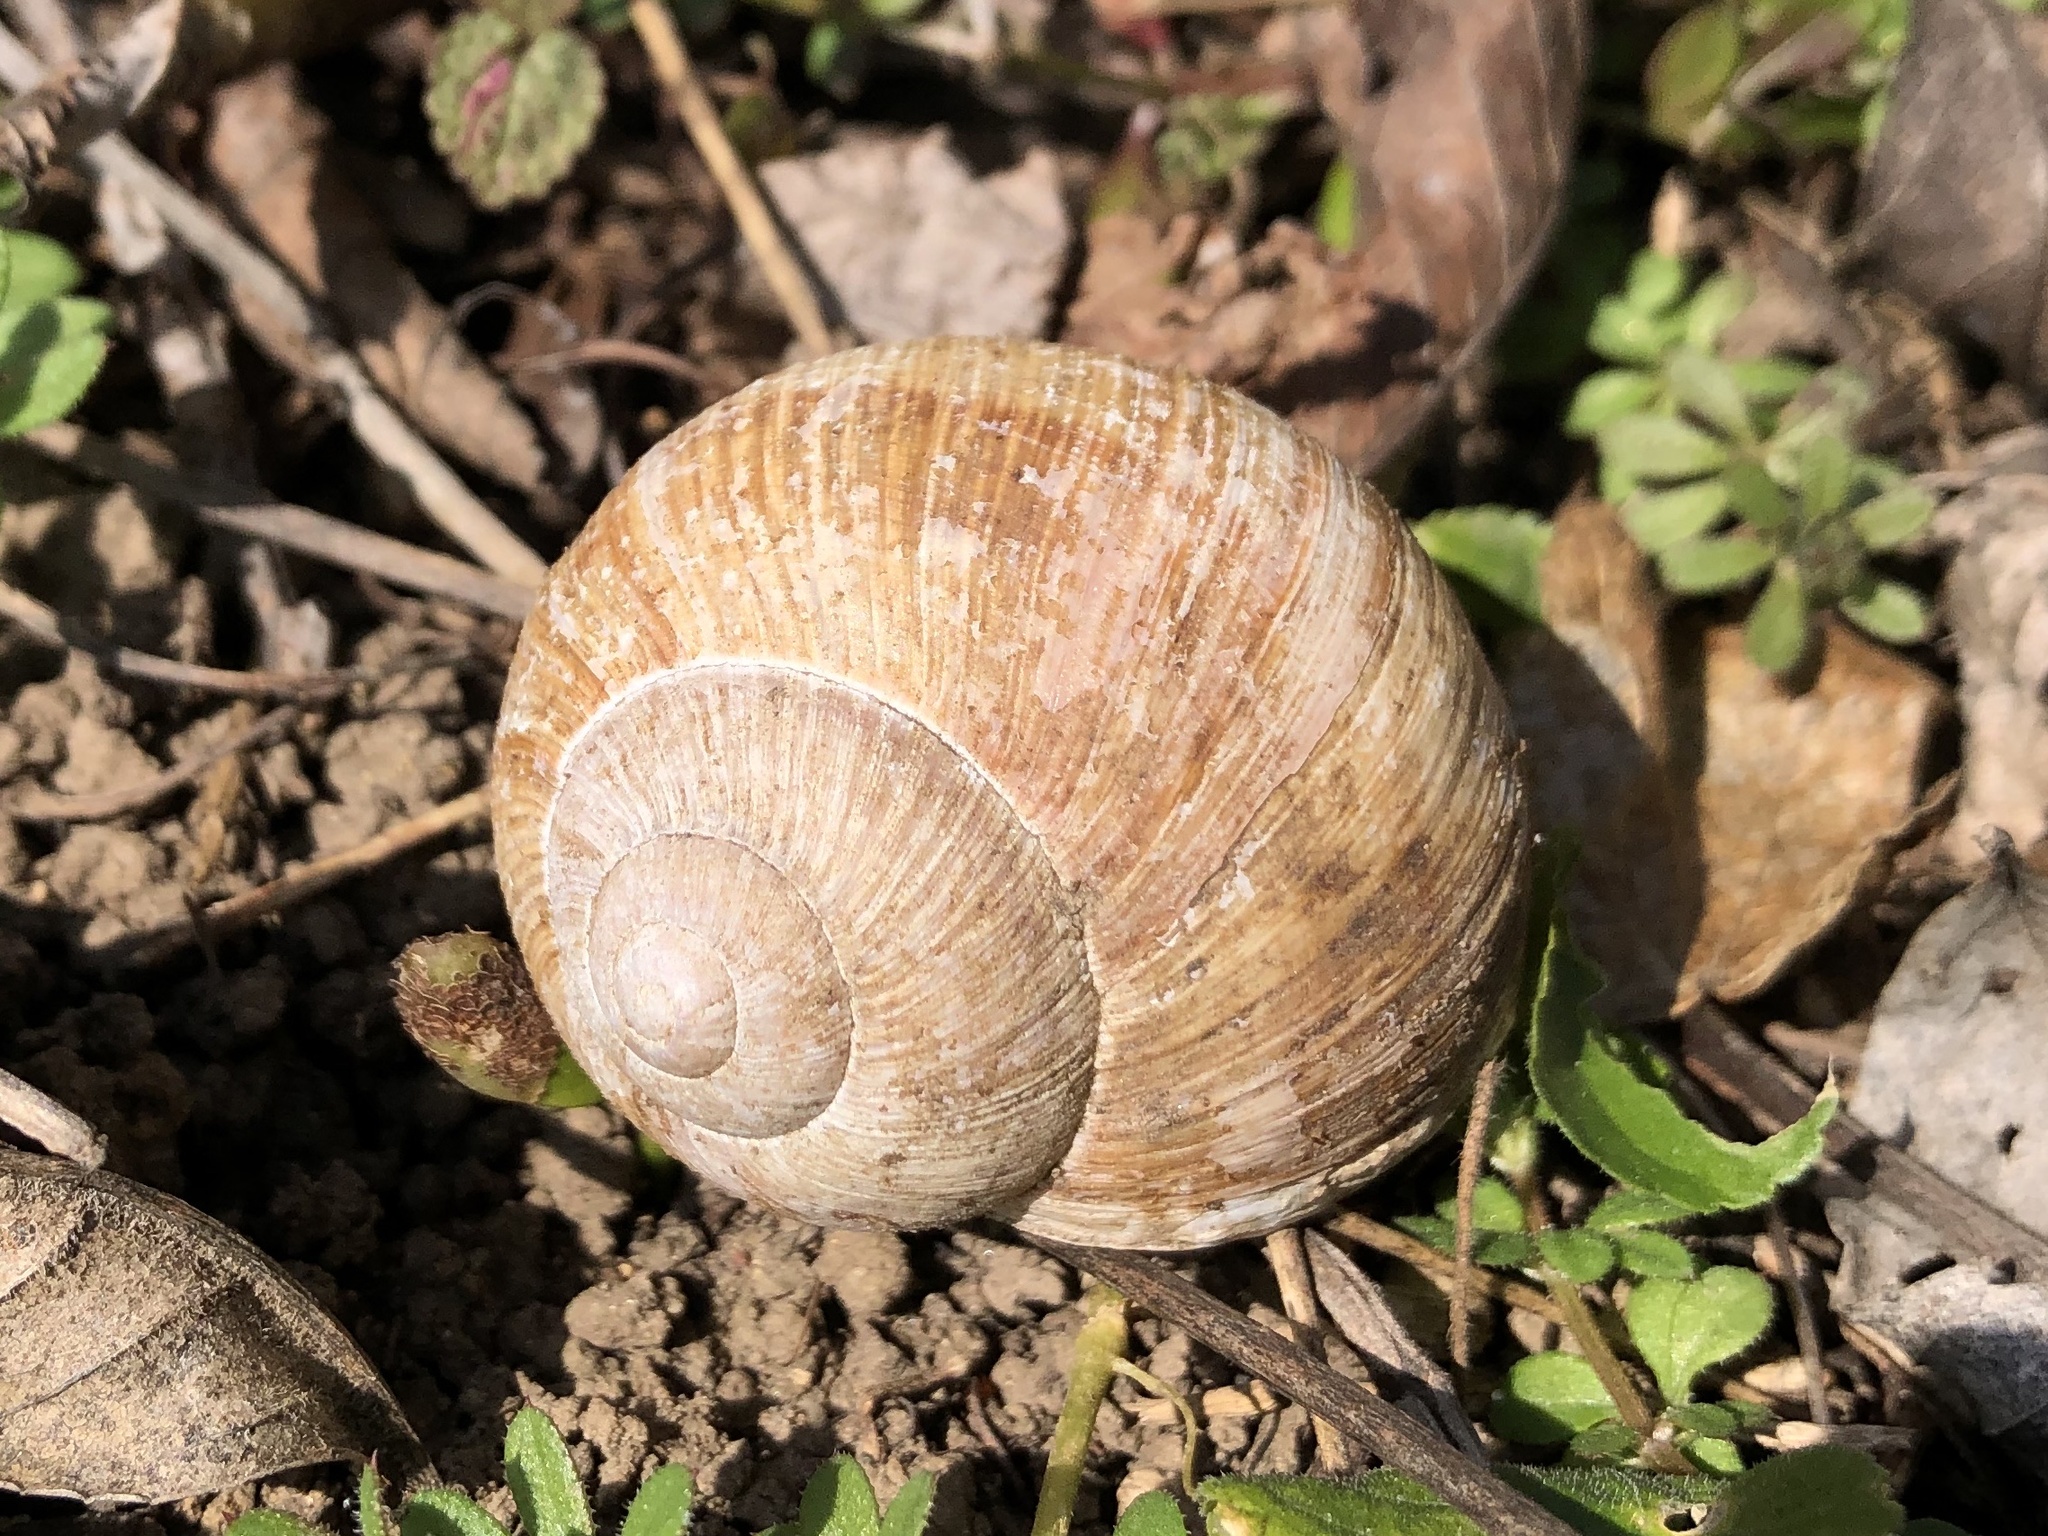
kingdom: Animalia
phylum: Mollusca
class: Gastropoda
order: Stylommatophora
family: Helicidae
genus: Helix
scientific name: Helix pomatia
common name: Roman snail
